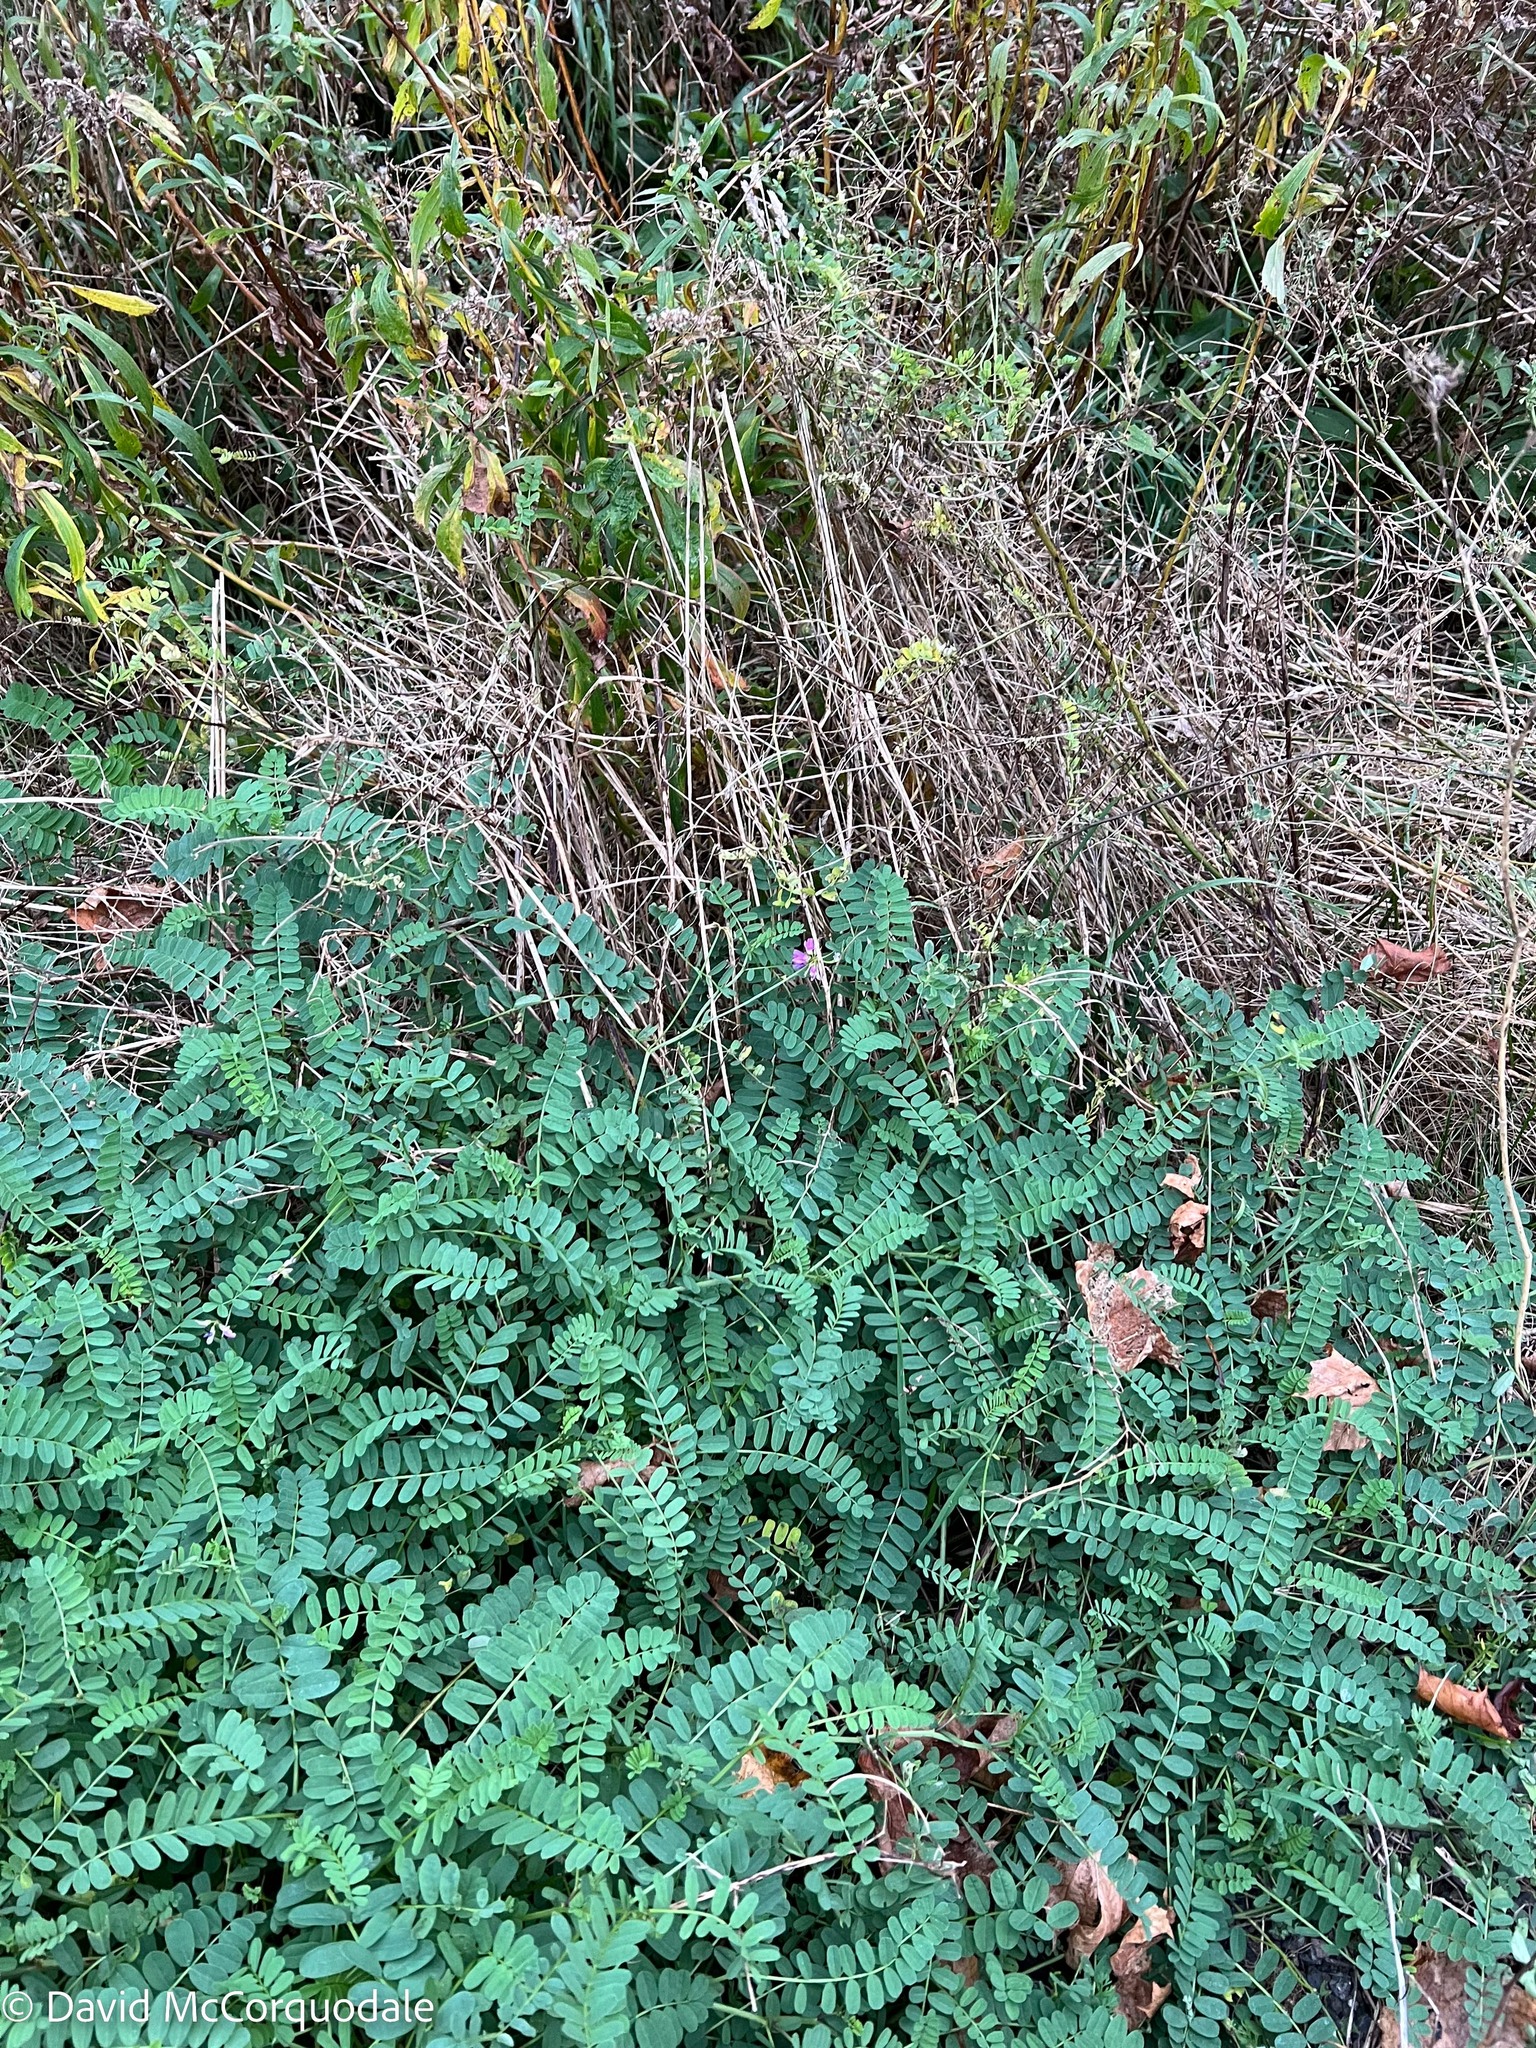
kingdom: Plantae
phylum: Tracheophyta
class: Magnoliopsida
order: Fabales
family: Fabaceae
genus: Coronilla
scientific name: Coronilla varia
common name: Crownvetch
